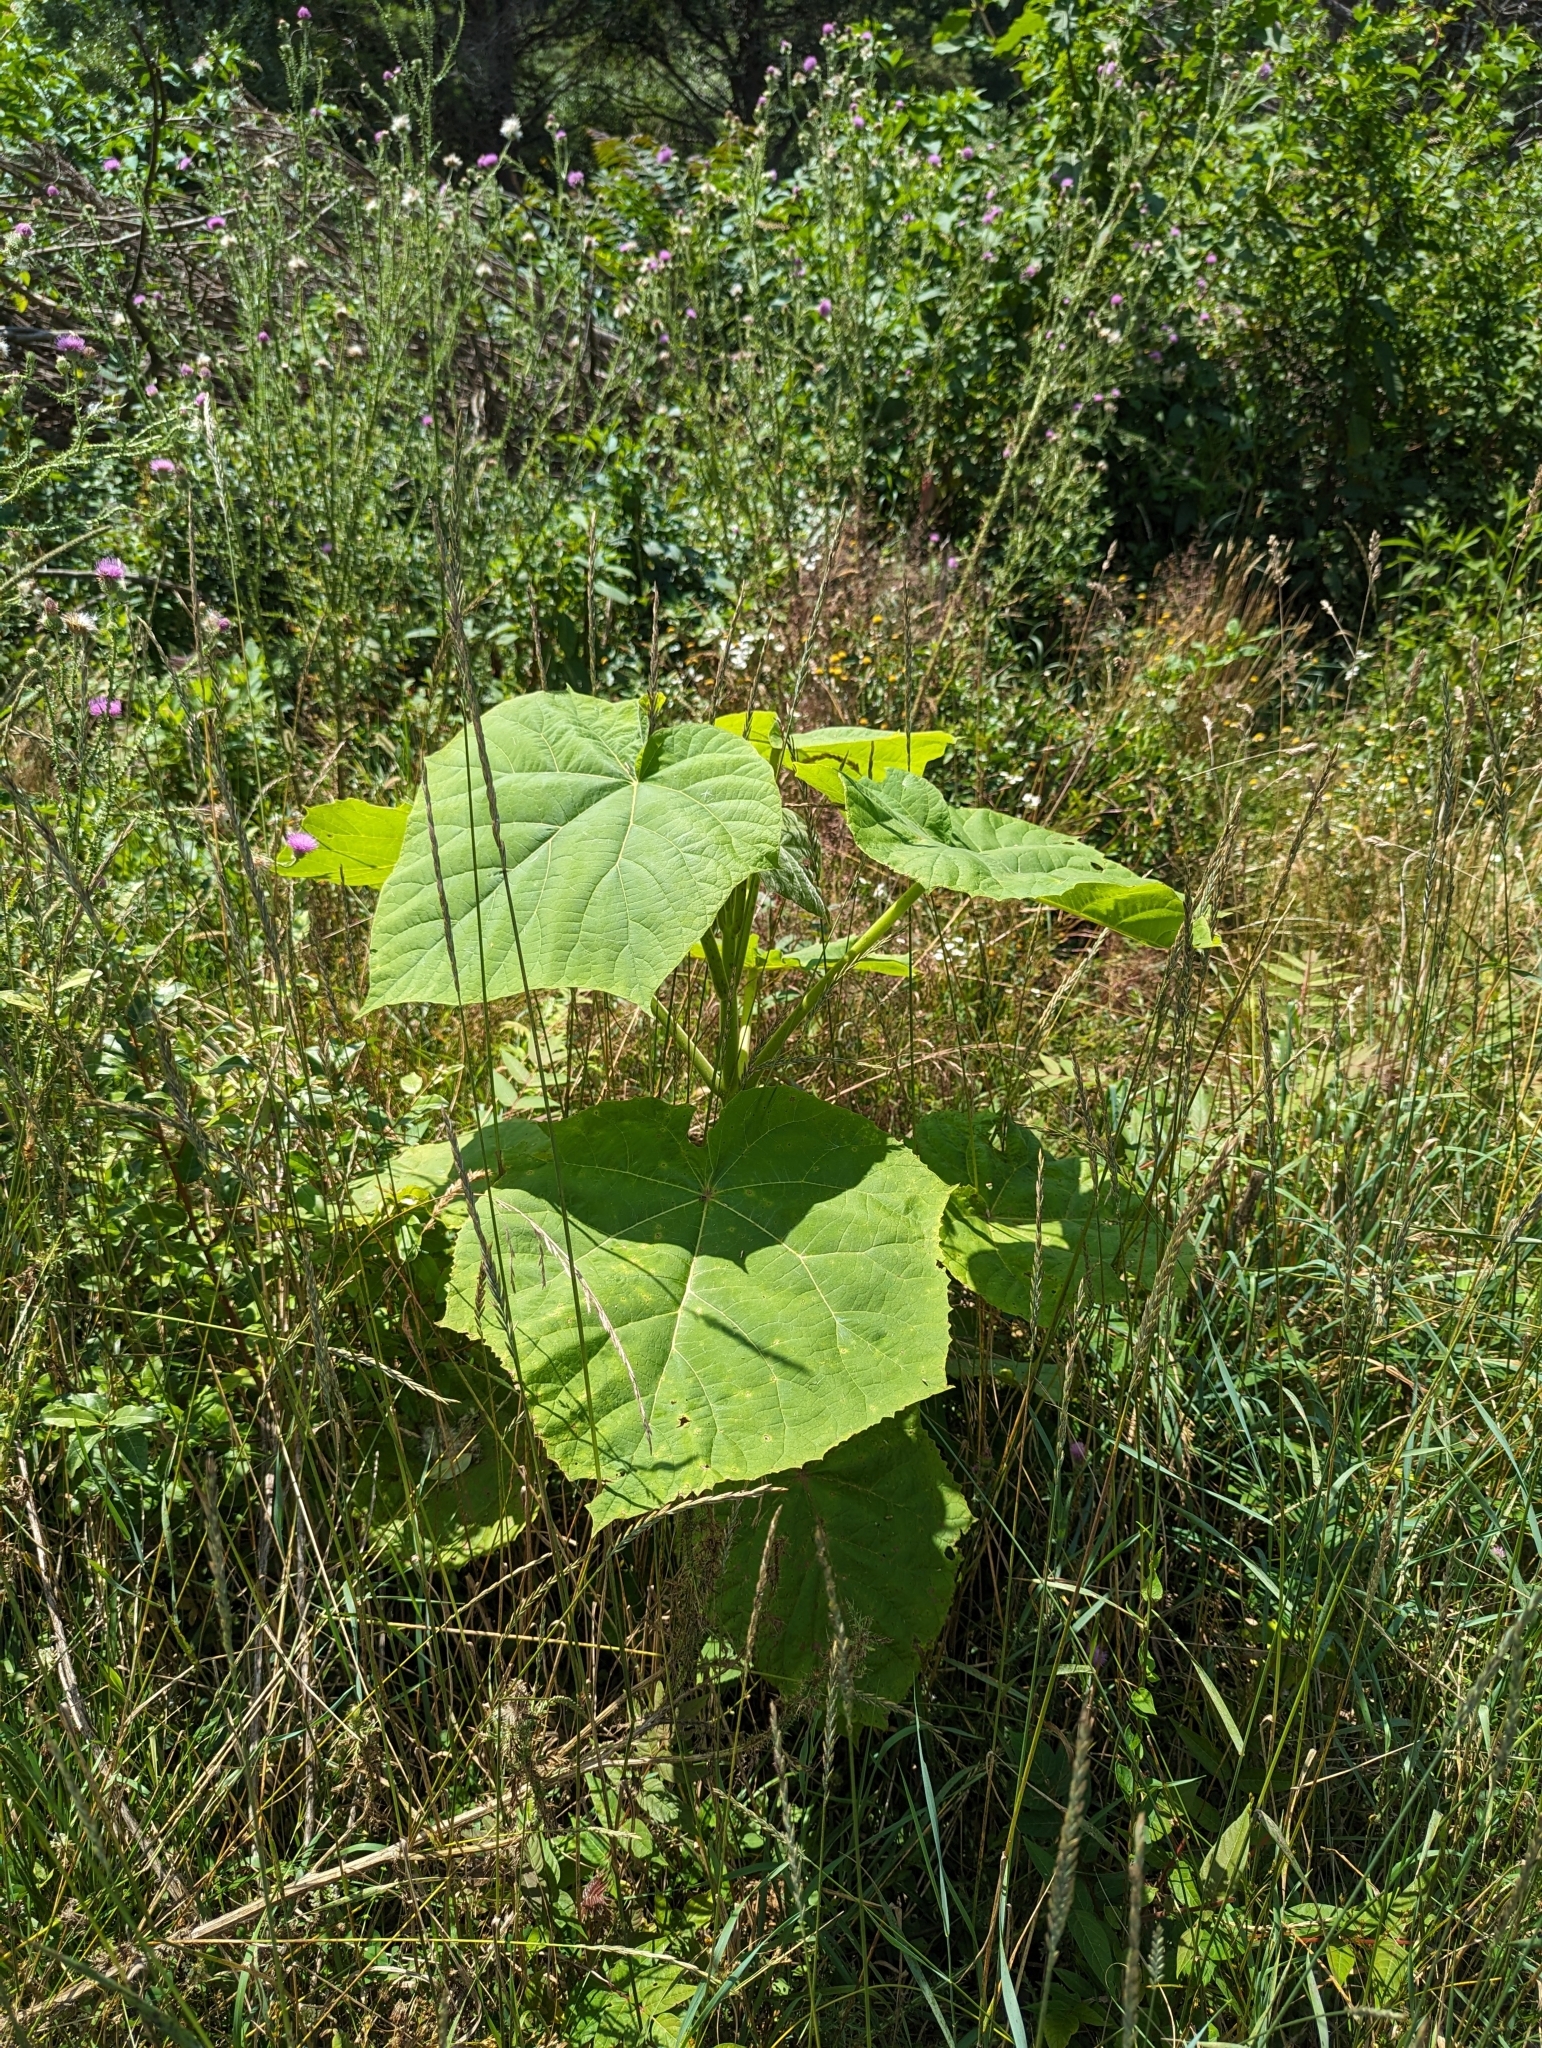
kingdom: Plantae
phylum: Tracheophyta
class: Magnoliopsida
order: Lamiales
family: Paulowniaceae
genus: Paulownia
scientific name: Paulownia tomentosa
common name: Foxglove-tree
